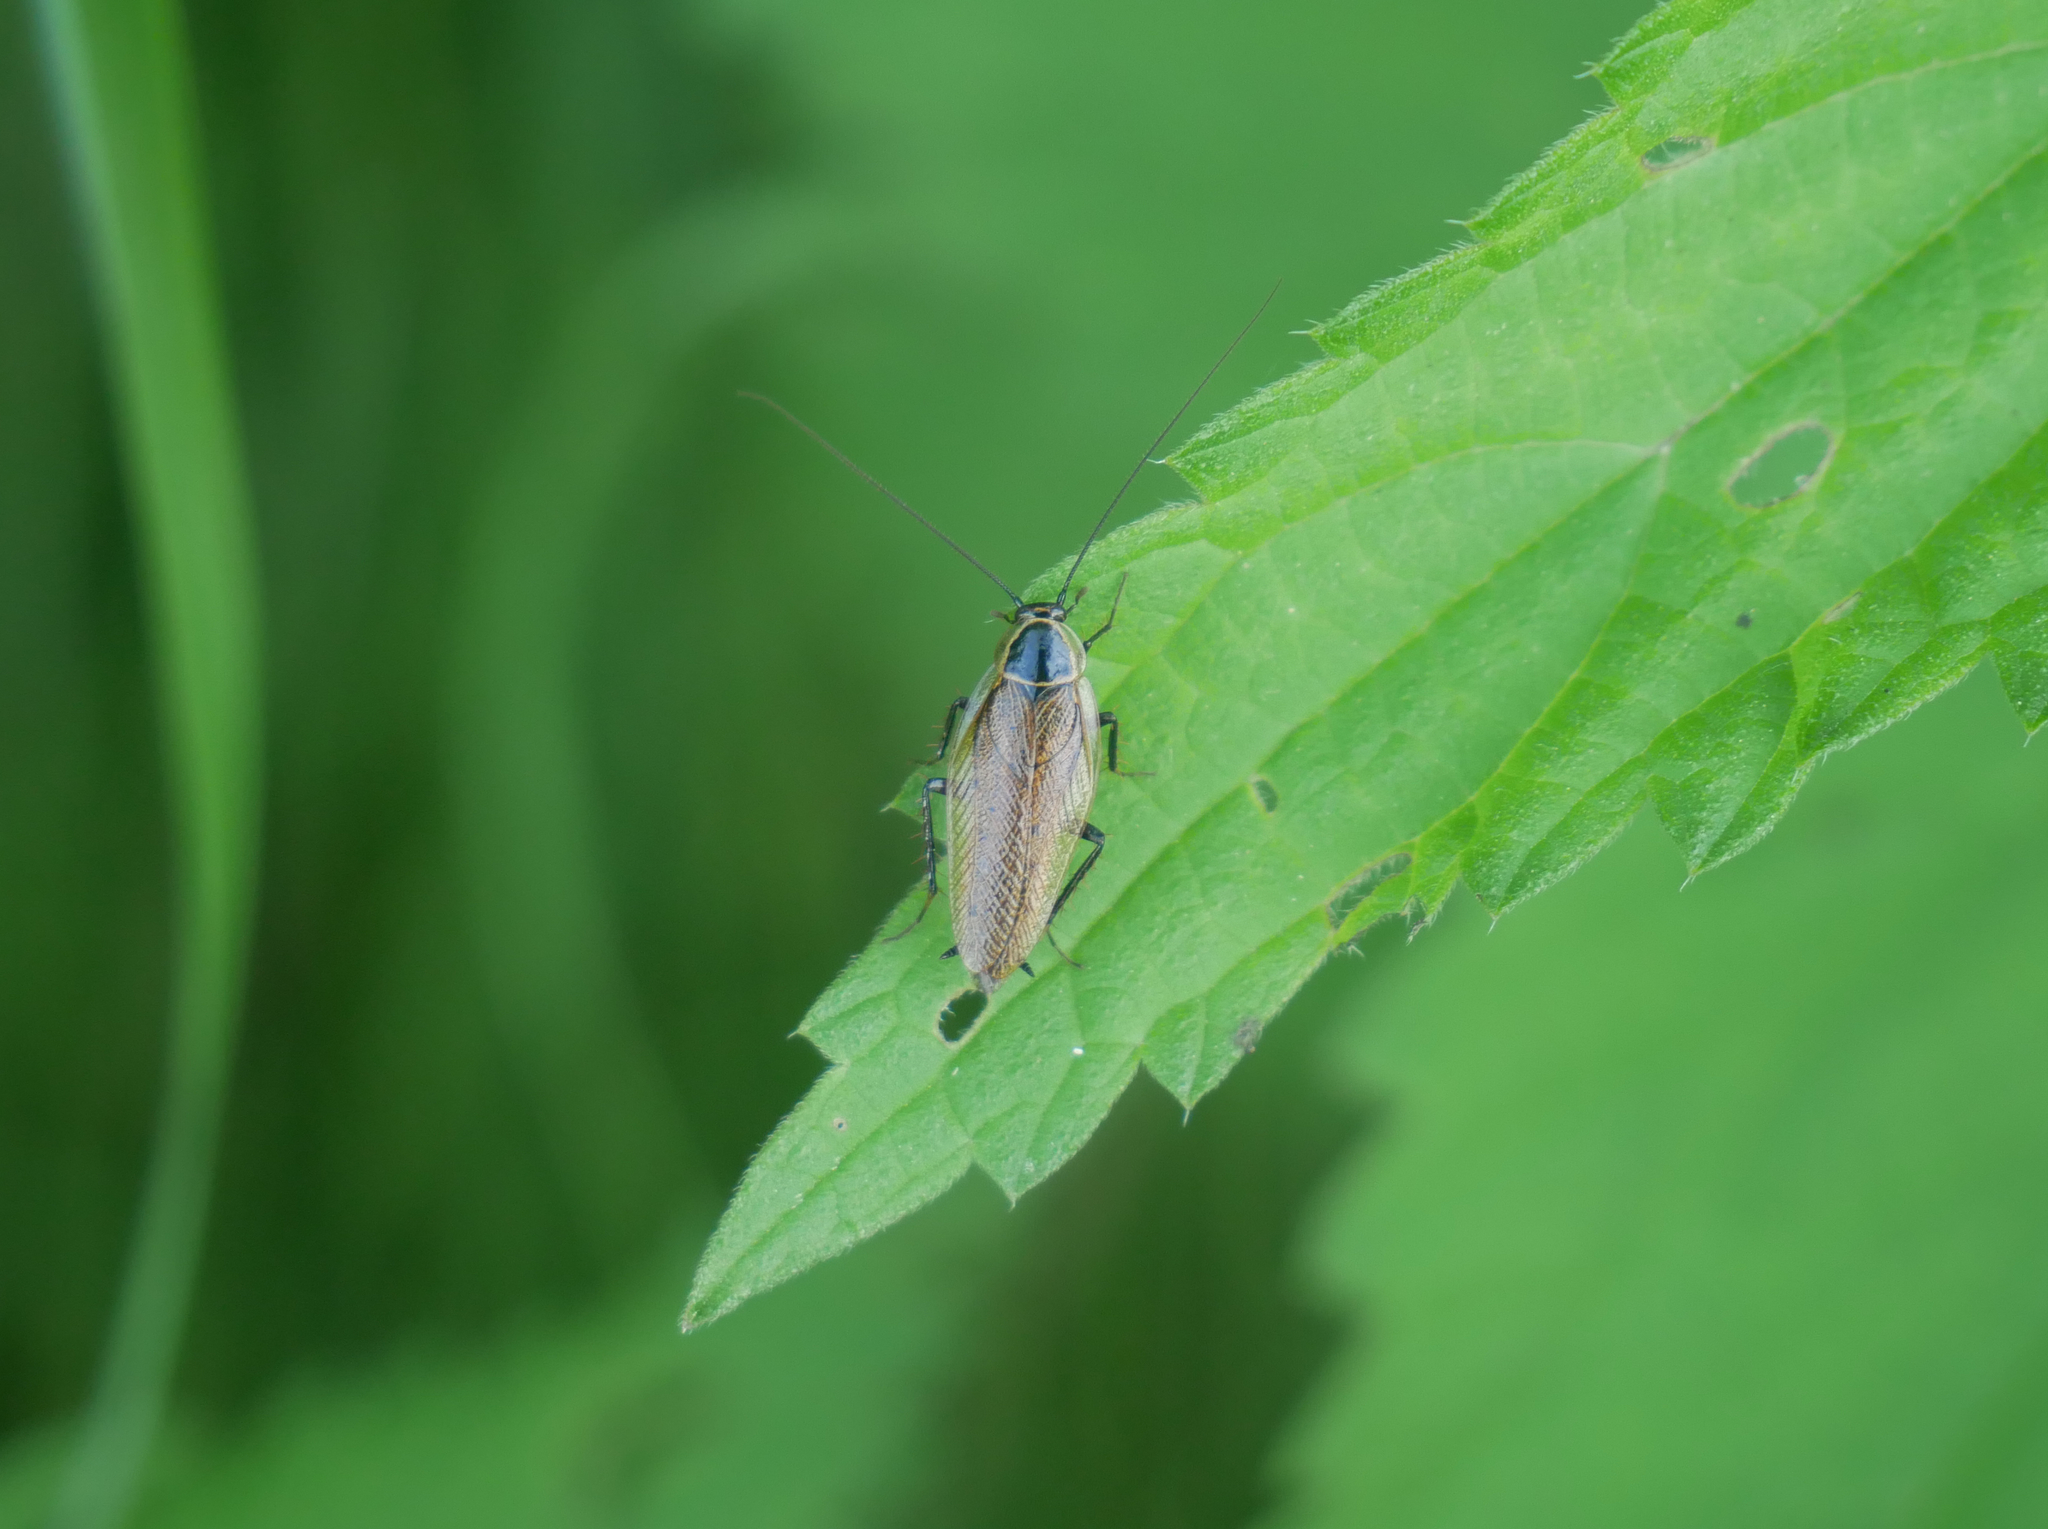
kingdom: Animalia
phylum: Arthropoda
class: Insecta
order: Blattodea
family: Ectobiidae
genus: Ectobius
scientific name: Ectobius sylvestris
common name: Forest cockroach
